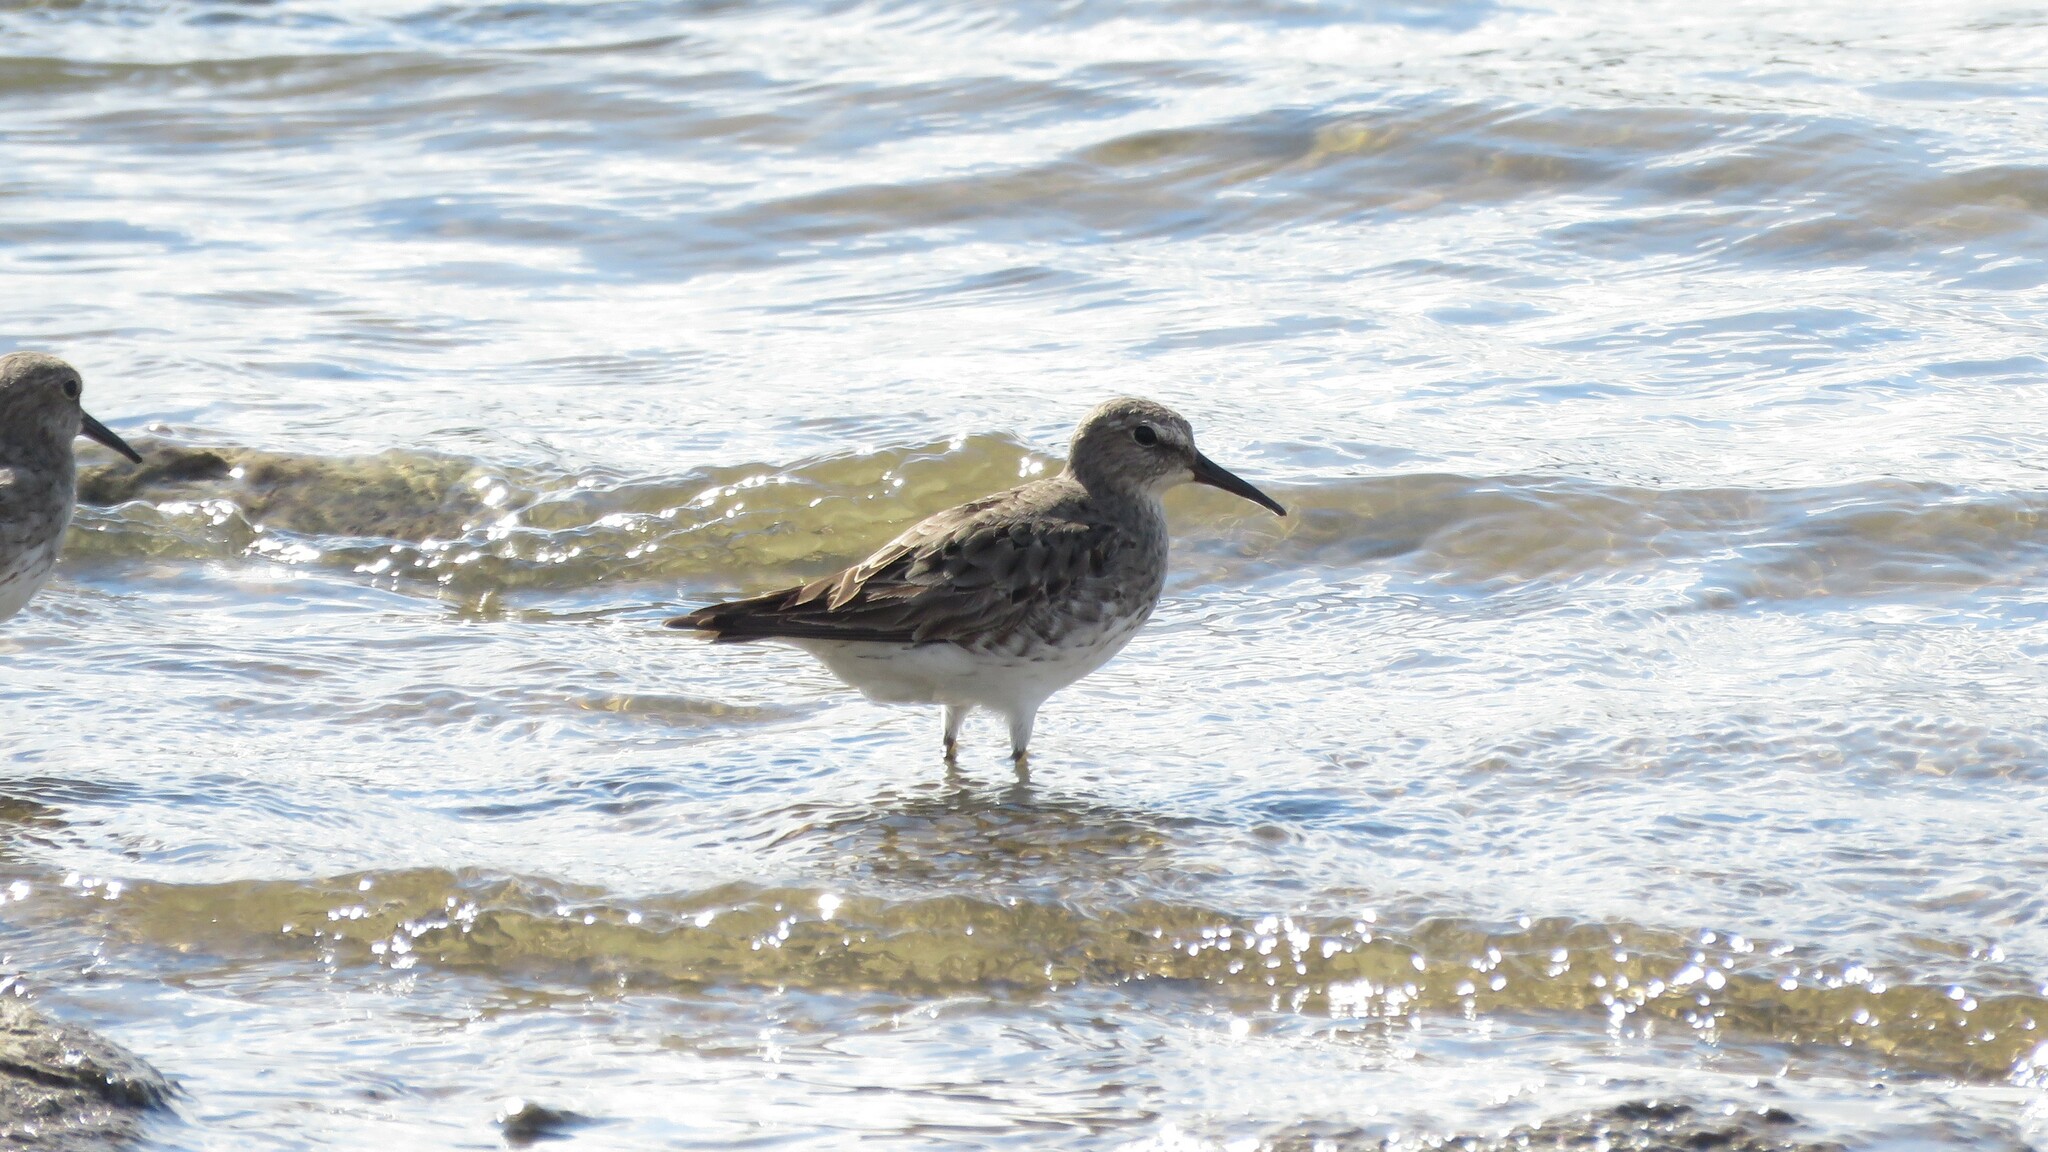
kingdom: Animalia
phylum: Chordata
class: Aves
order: Charadriiformes
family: Scolopacidae
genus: Calidris
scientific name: Calidris fuscicollis
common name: White-rumped sandpiper
